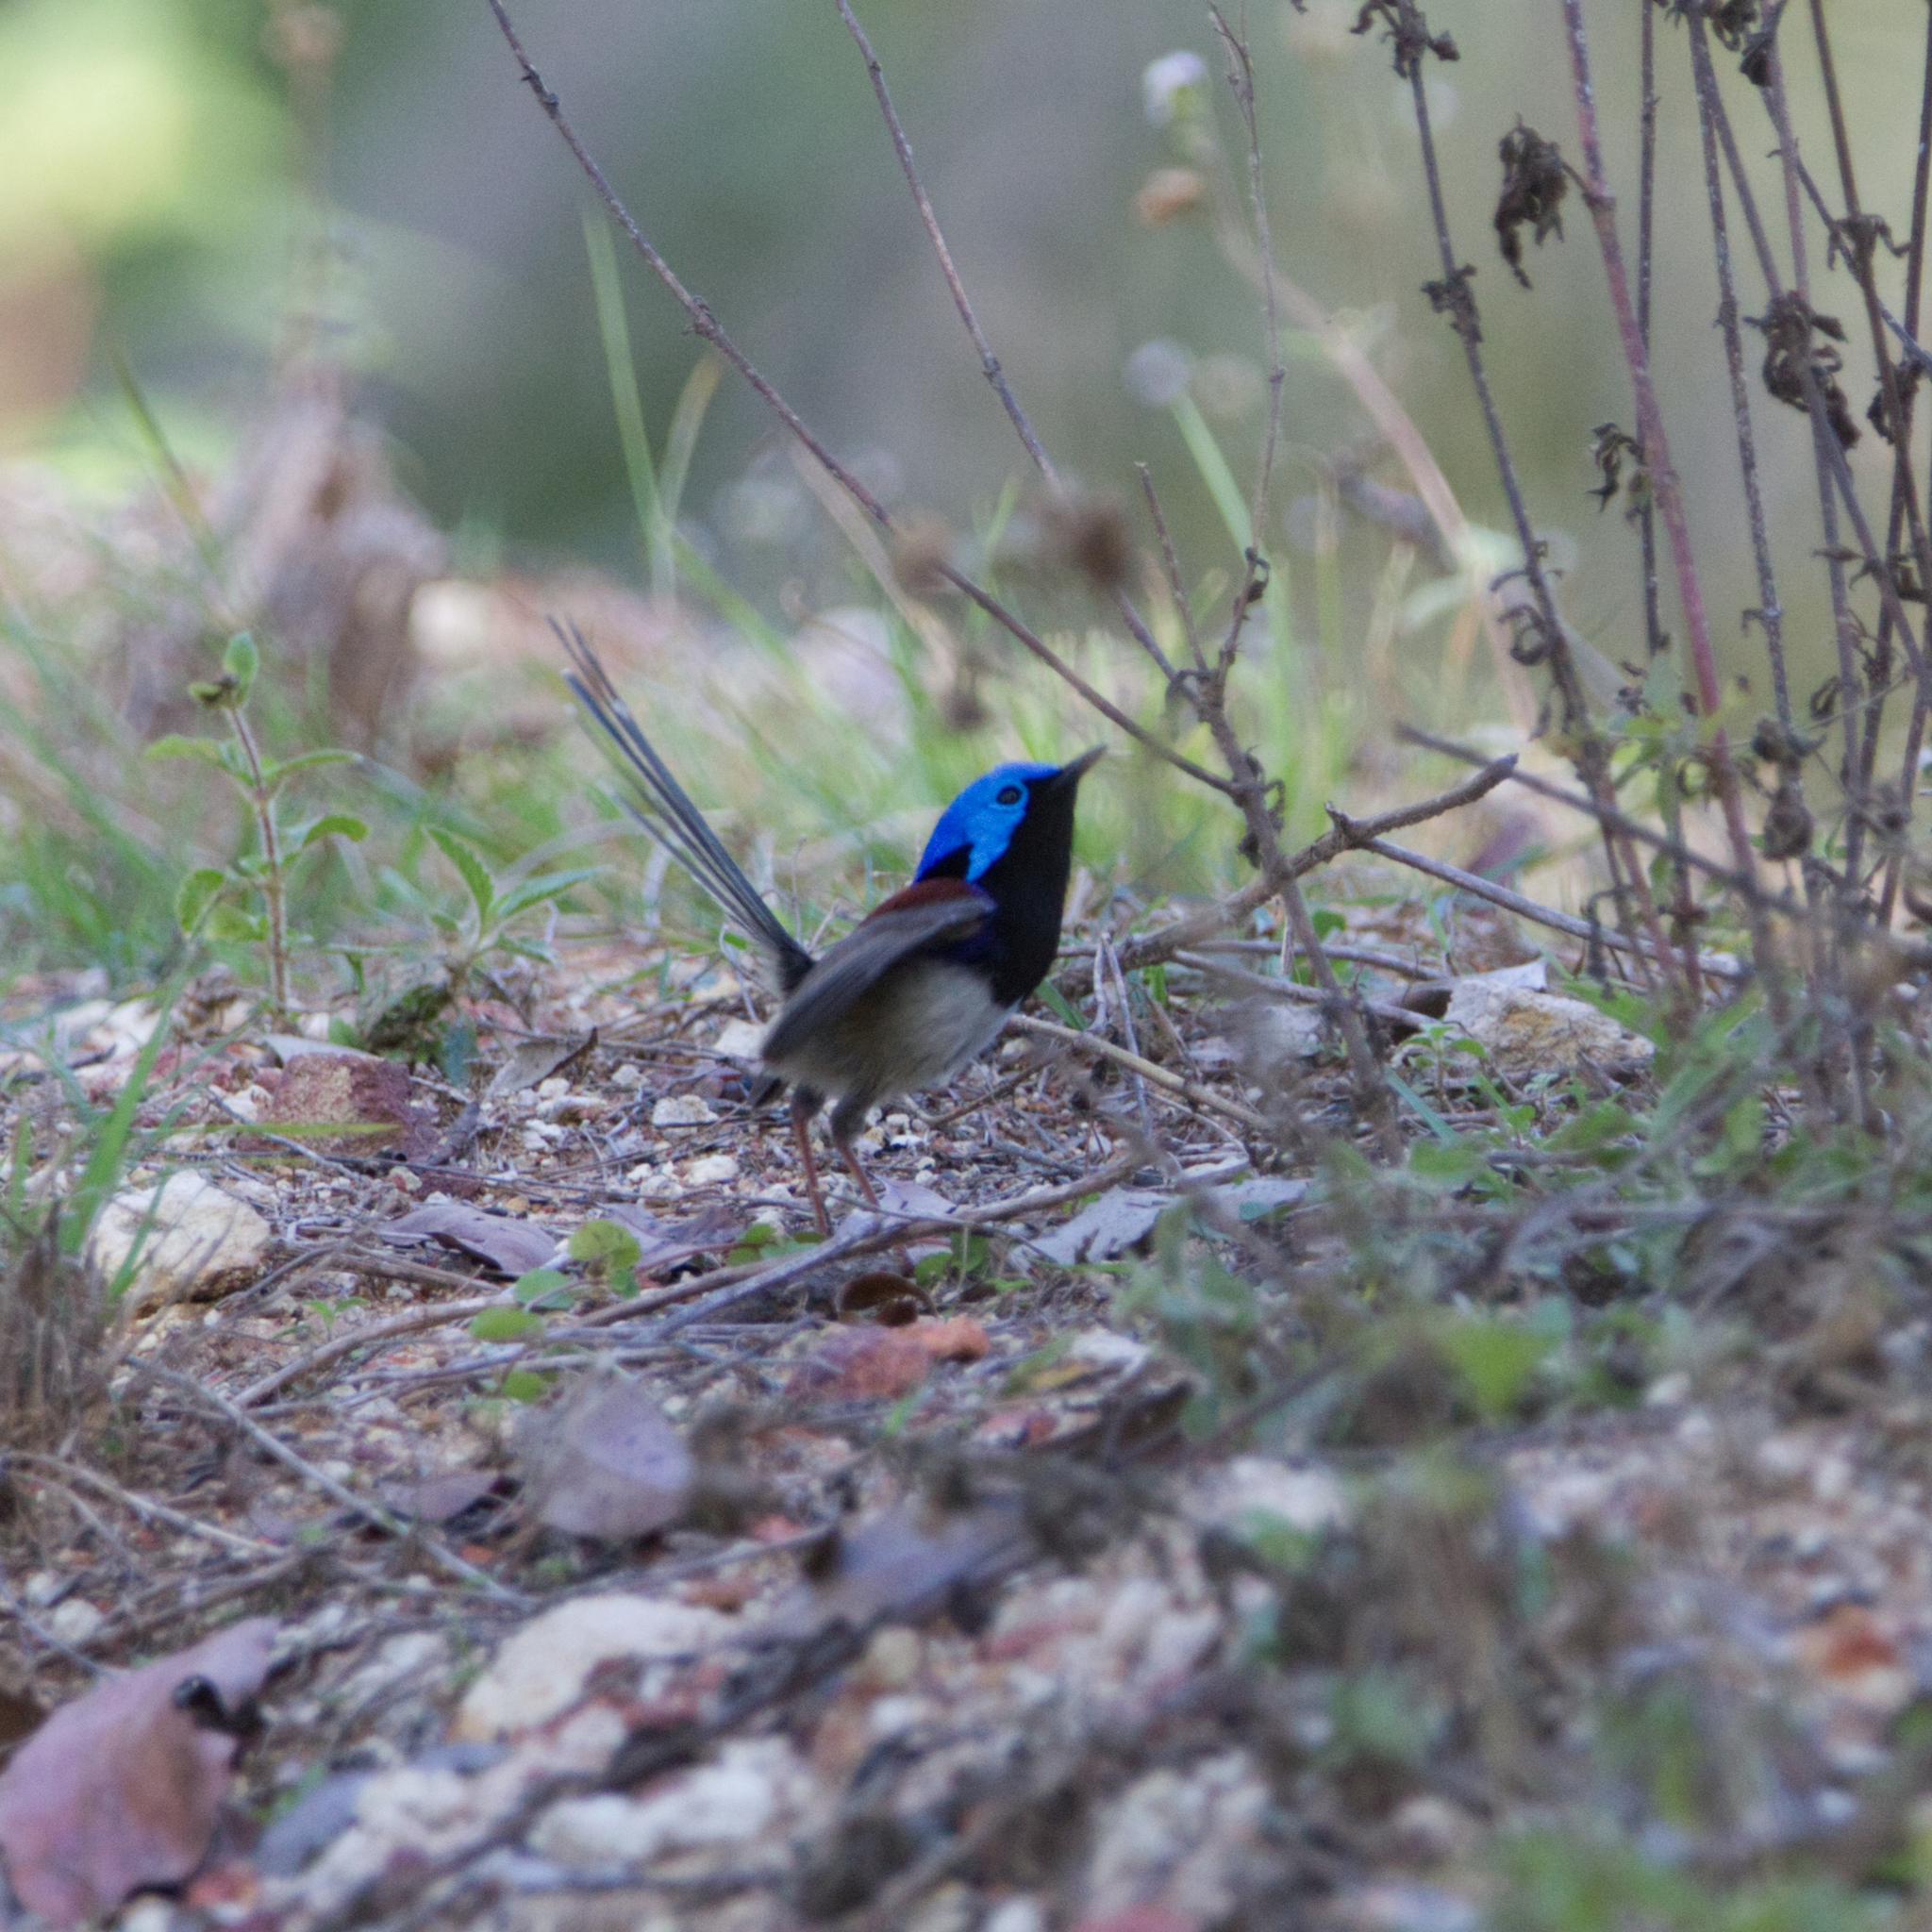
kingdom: Animalia
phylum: Chordata
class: Aves
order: Passeriformes
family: Maluridae
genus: Malurus
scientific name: Malurus lamberti
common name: Variegated fairywren
